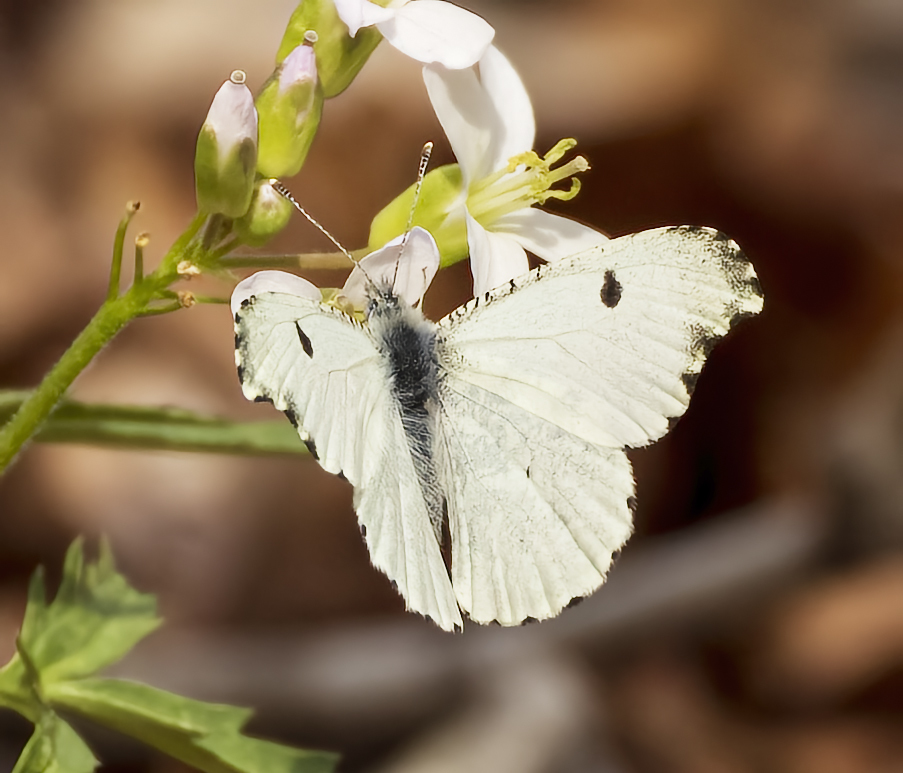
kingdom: Animalia
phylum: Arthropoda
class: Insecta
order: Lepidoptera
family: Pieridae
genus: Anthocharis
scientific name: Anthocharis midea
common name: Falcate orangetip
